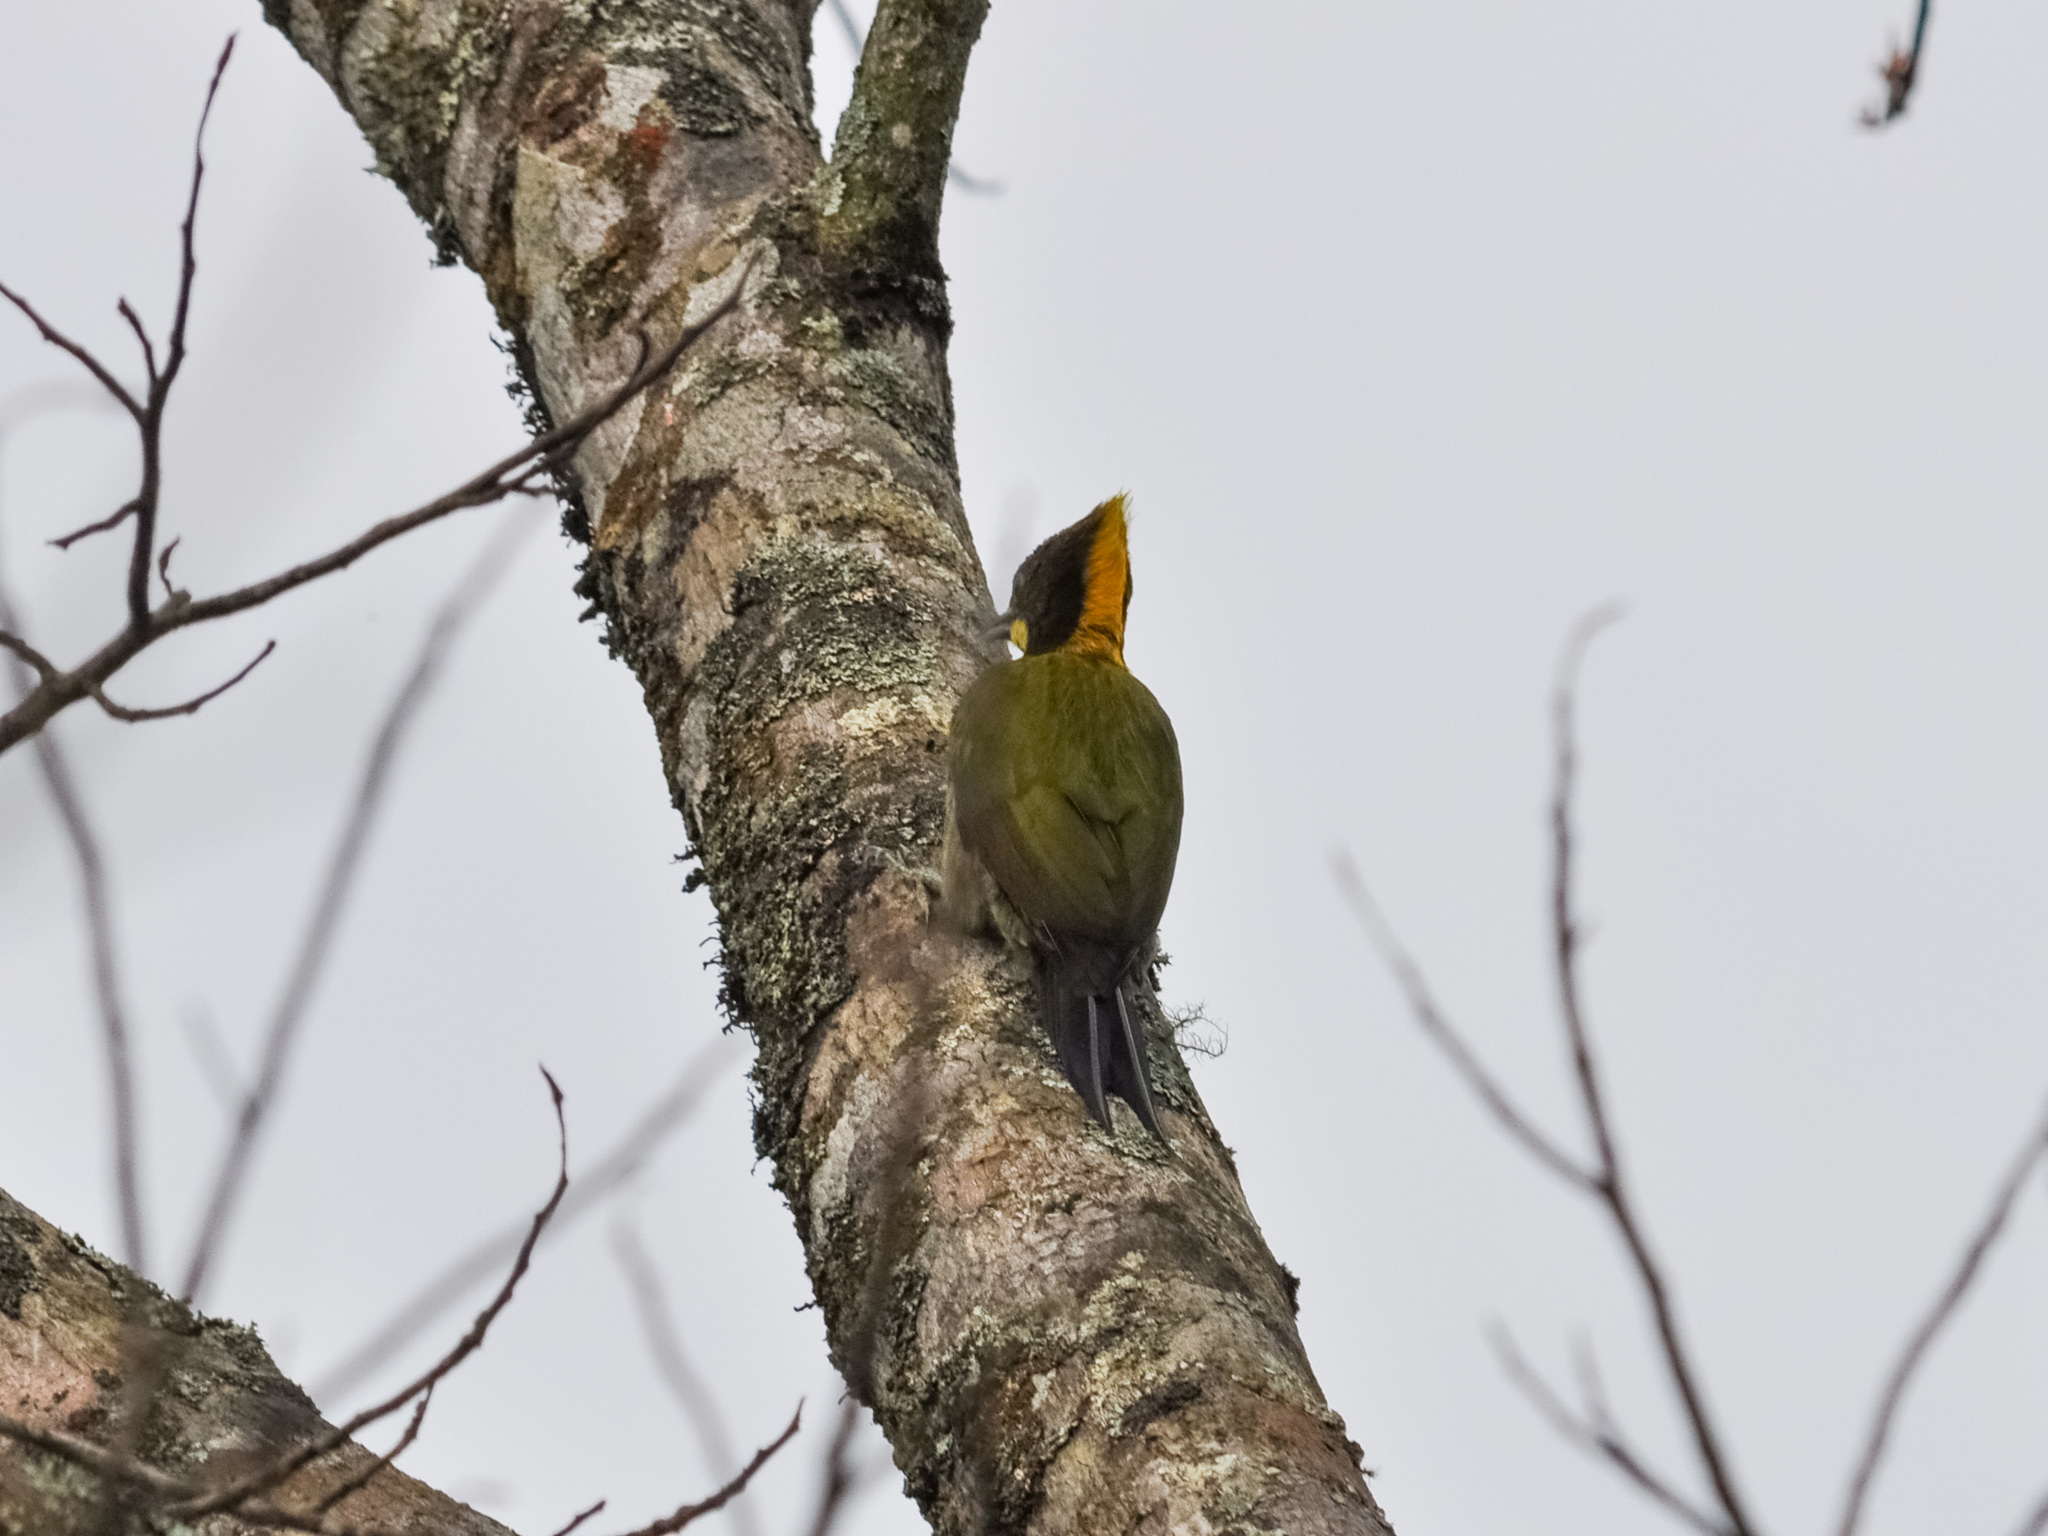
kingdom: Animalia
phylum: Chordata
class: Aves
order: Piciformes
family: Picidae
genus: Chrysophlegma
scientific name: Chrysophlegma flavinucha
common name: Greater yellownape
